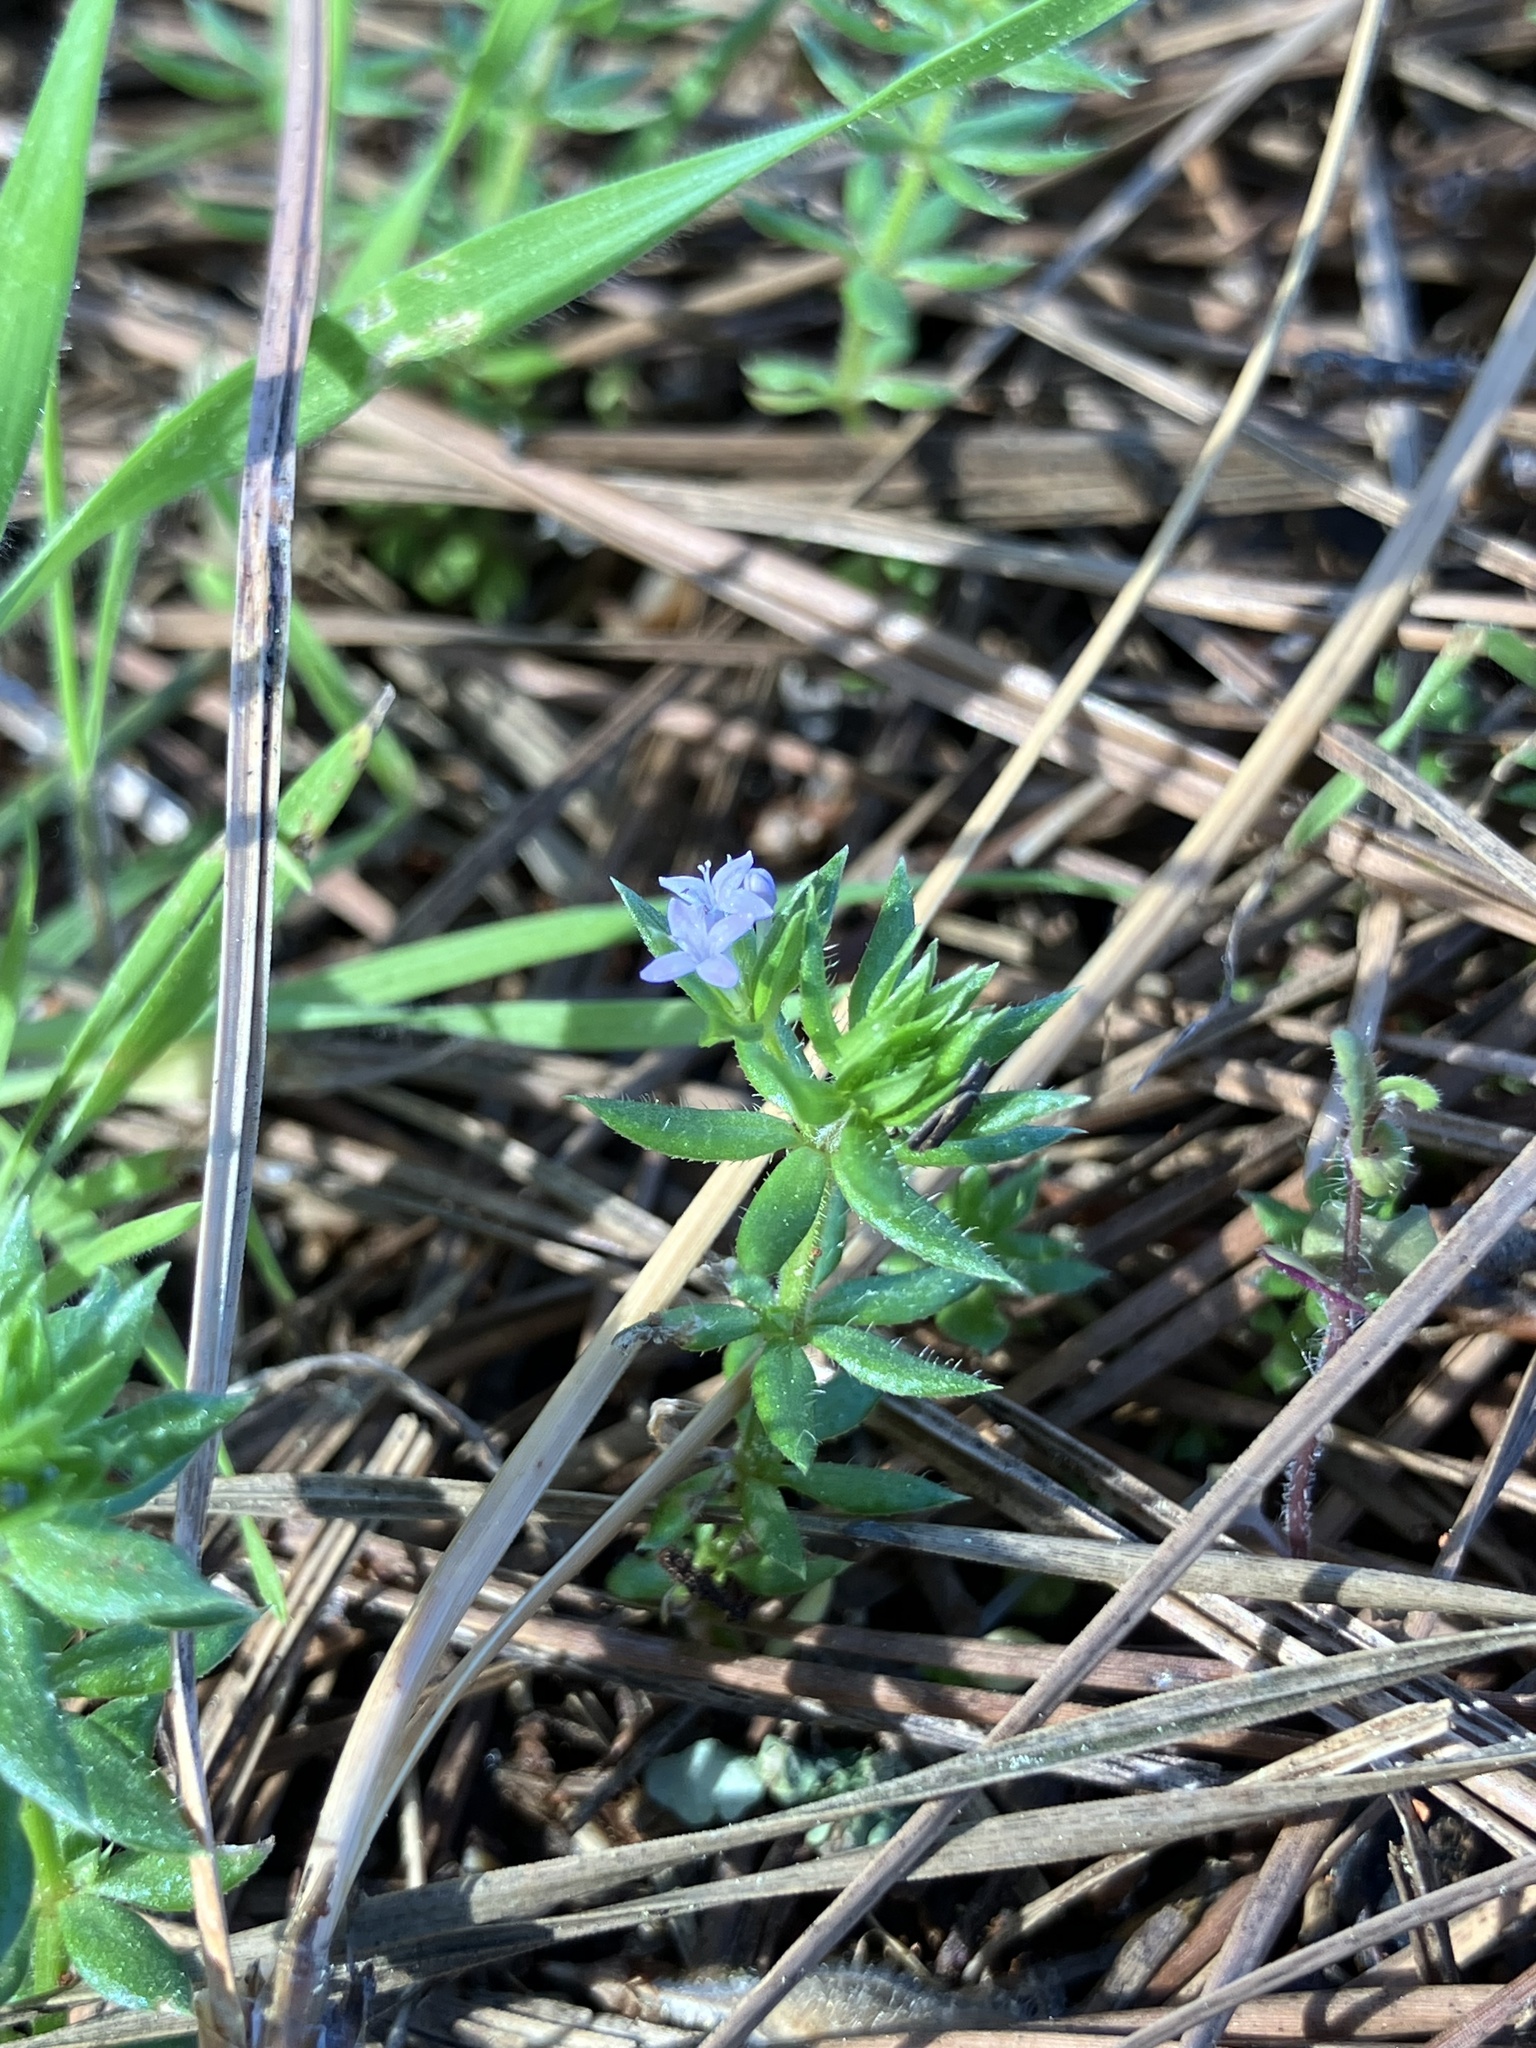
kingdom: Plantae
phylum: Tracheophyta
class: Magnoliopsida
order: Gentianales
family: Rubiaceae
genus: Sherardia
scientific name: Sherardia arvensis
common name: Field madder
